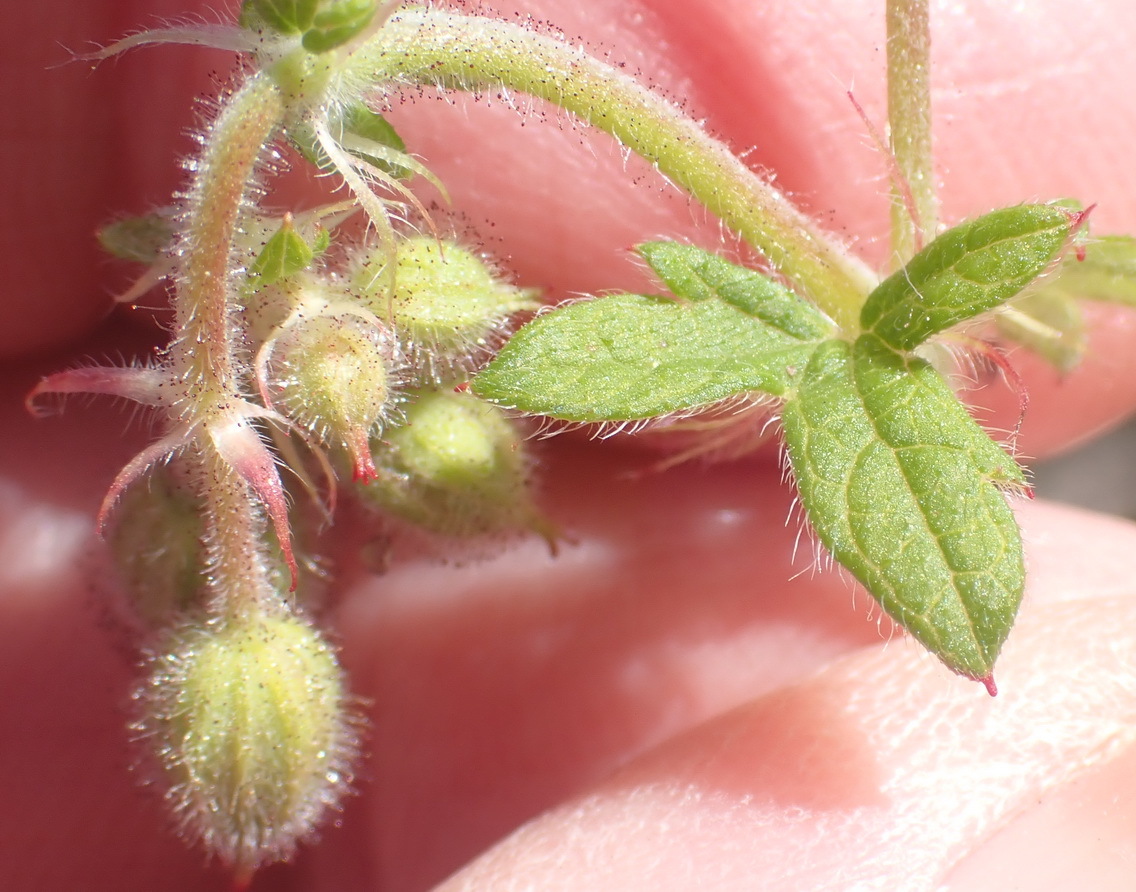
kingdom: Plantae
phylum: Tracheophyta
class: Magnoliopsida
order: Geraniales
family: Geraniaceae
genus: Geranium
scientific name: Geranium ornithopodon
